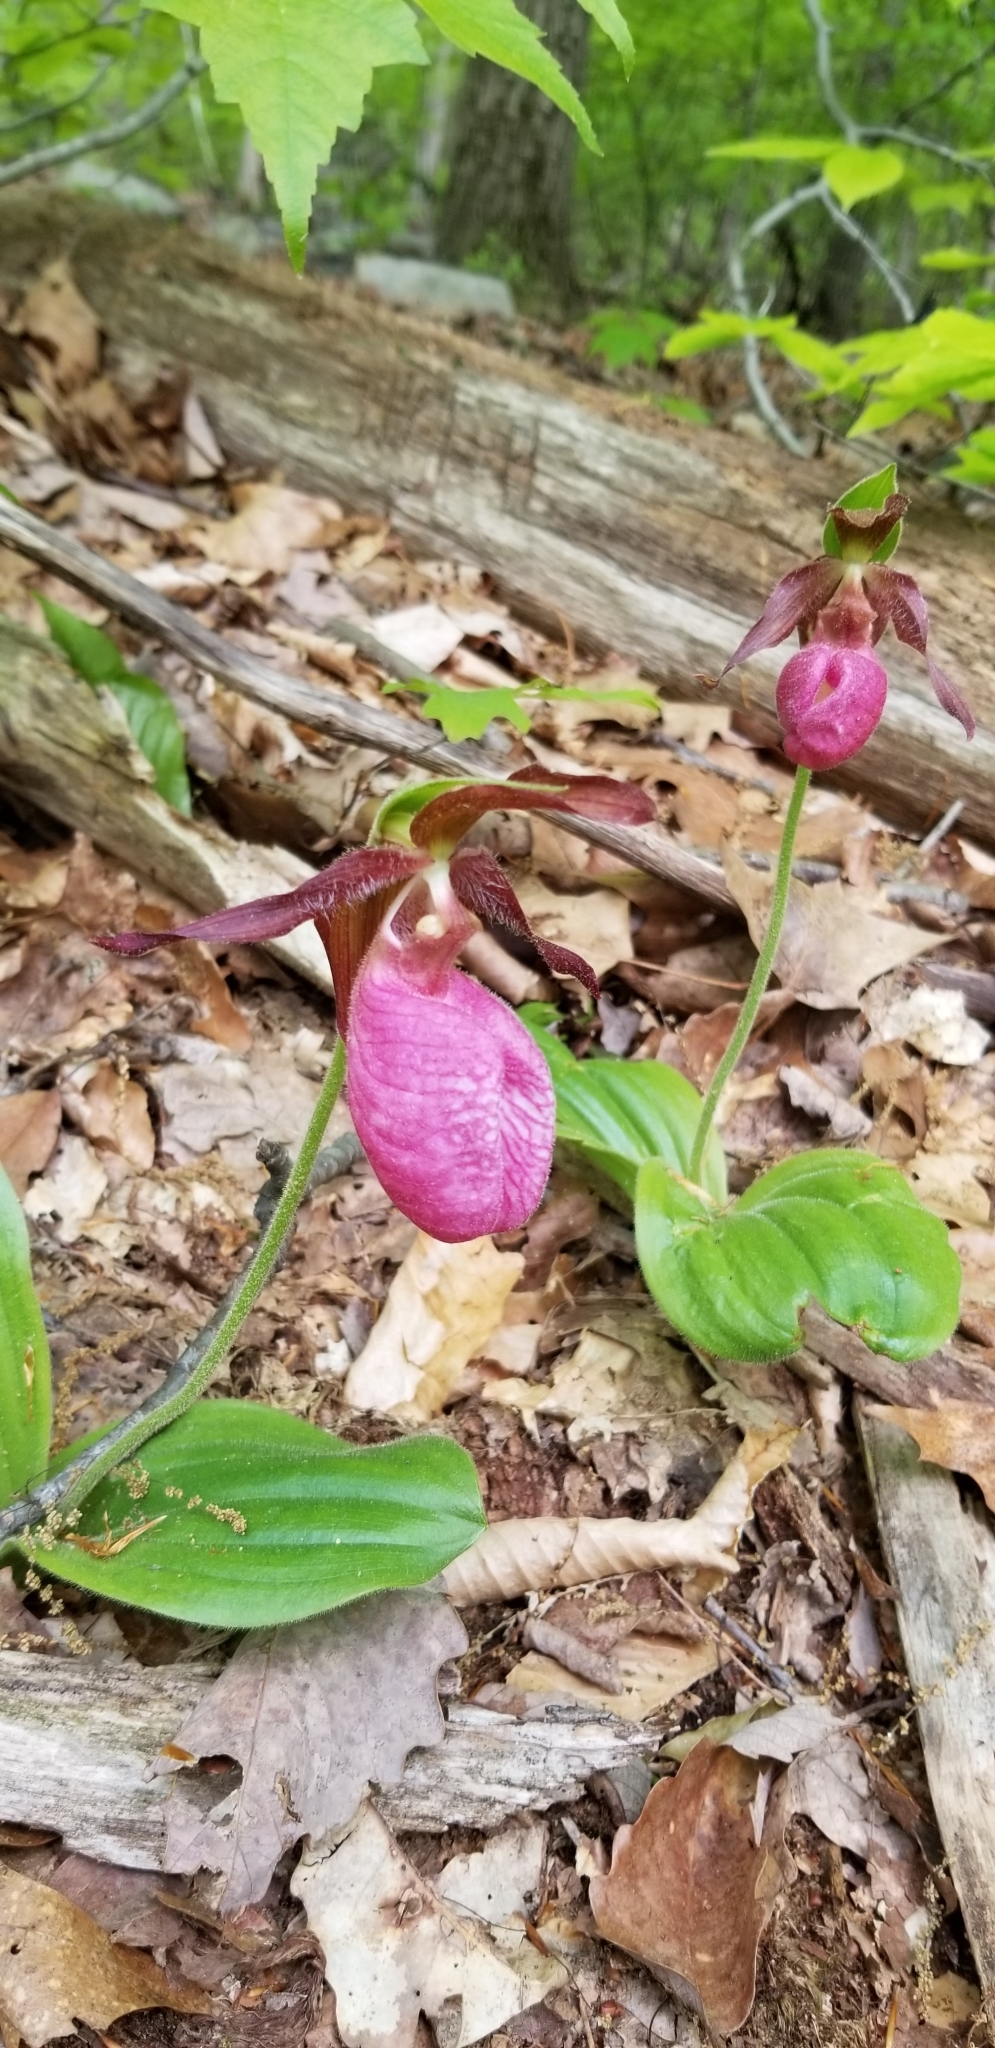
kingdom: Plantae
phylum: Tracheophyta
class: Liliopsida
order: Asparagales
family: Orchidaceae
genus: Cypripedium
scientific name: Cypripedium acaule
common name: Pink lady's-slipper
